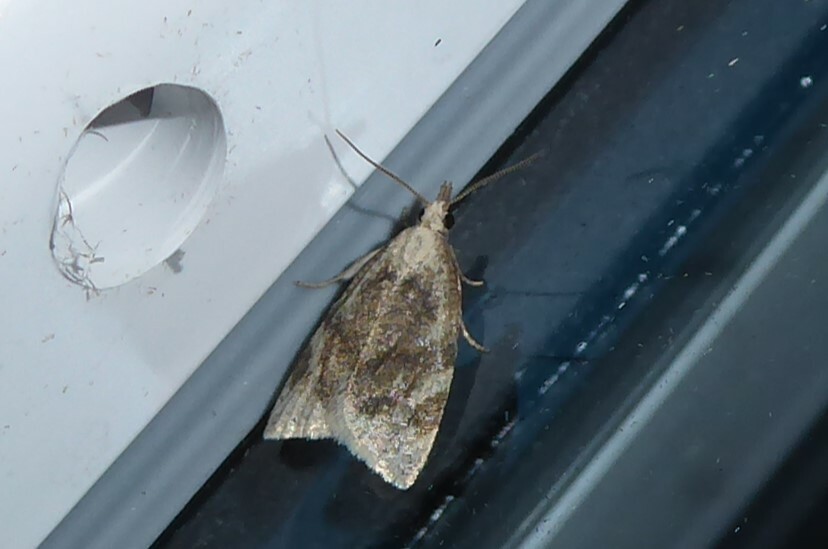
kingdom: Animalia
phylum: Arthropoda
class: Insecta
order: Lepidoptera
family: Tortricidae
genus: Catamacta
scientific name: Catamacta gavisana
